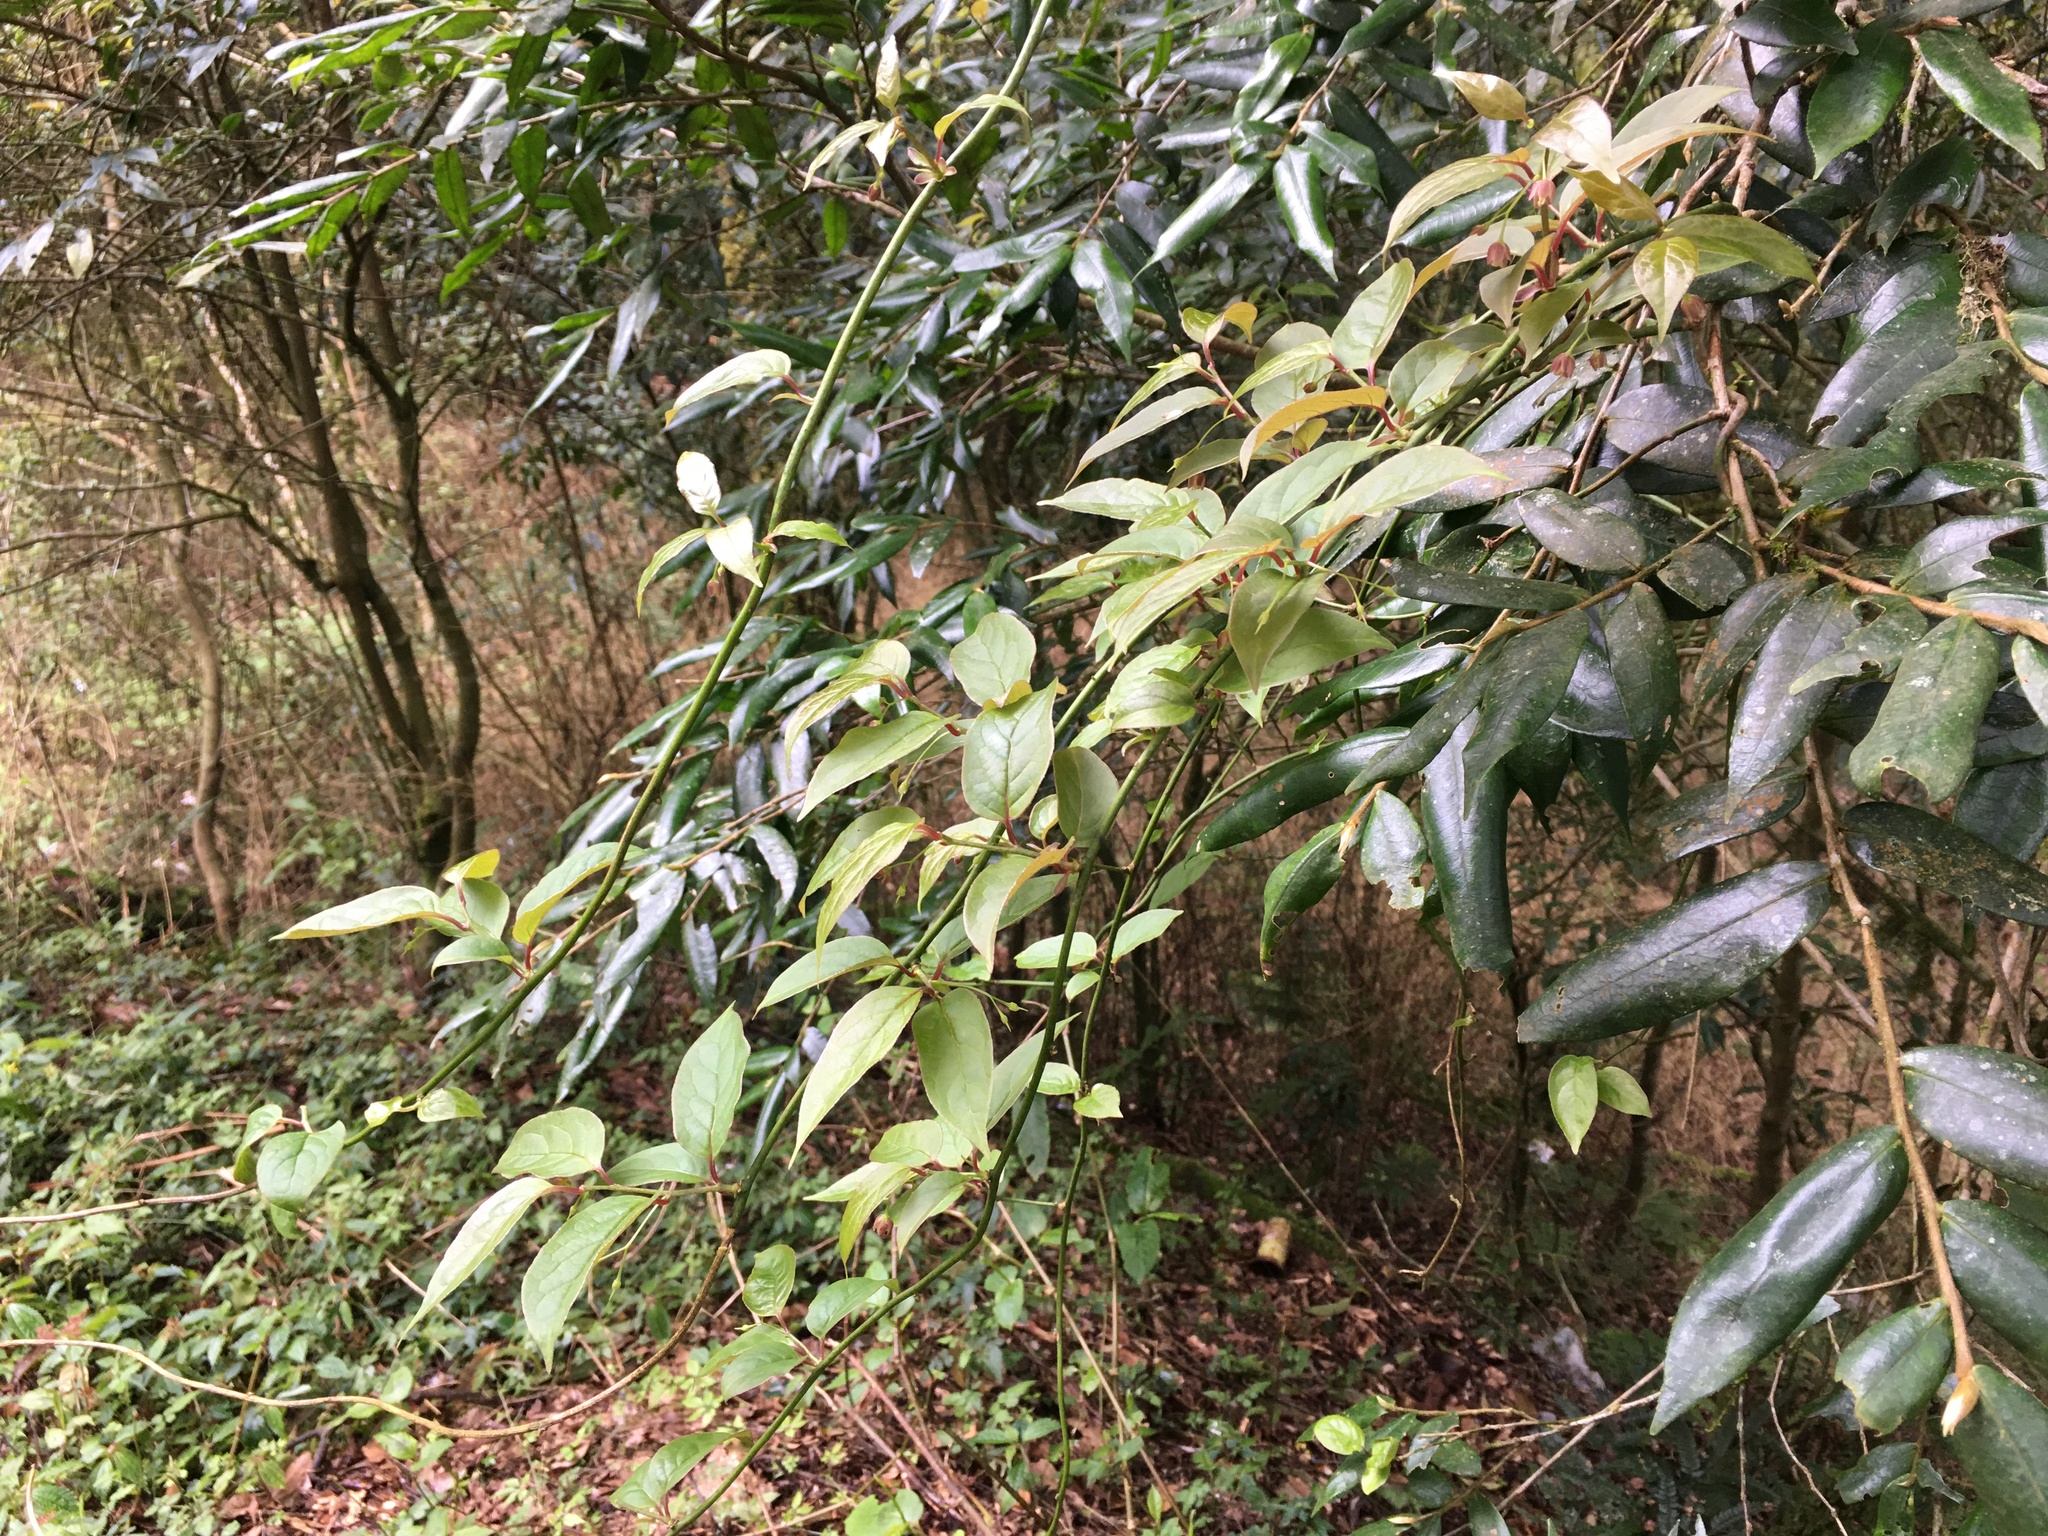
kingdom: Plantae
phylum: Tracheophyta
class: Magnoliopsida
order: Proteales
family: Sabiaceae
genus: Sabia
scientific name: Sabia transarisanensis
